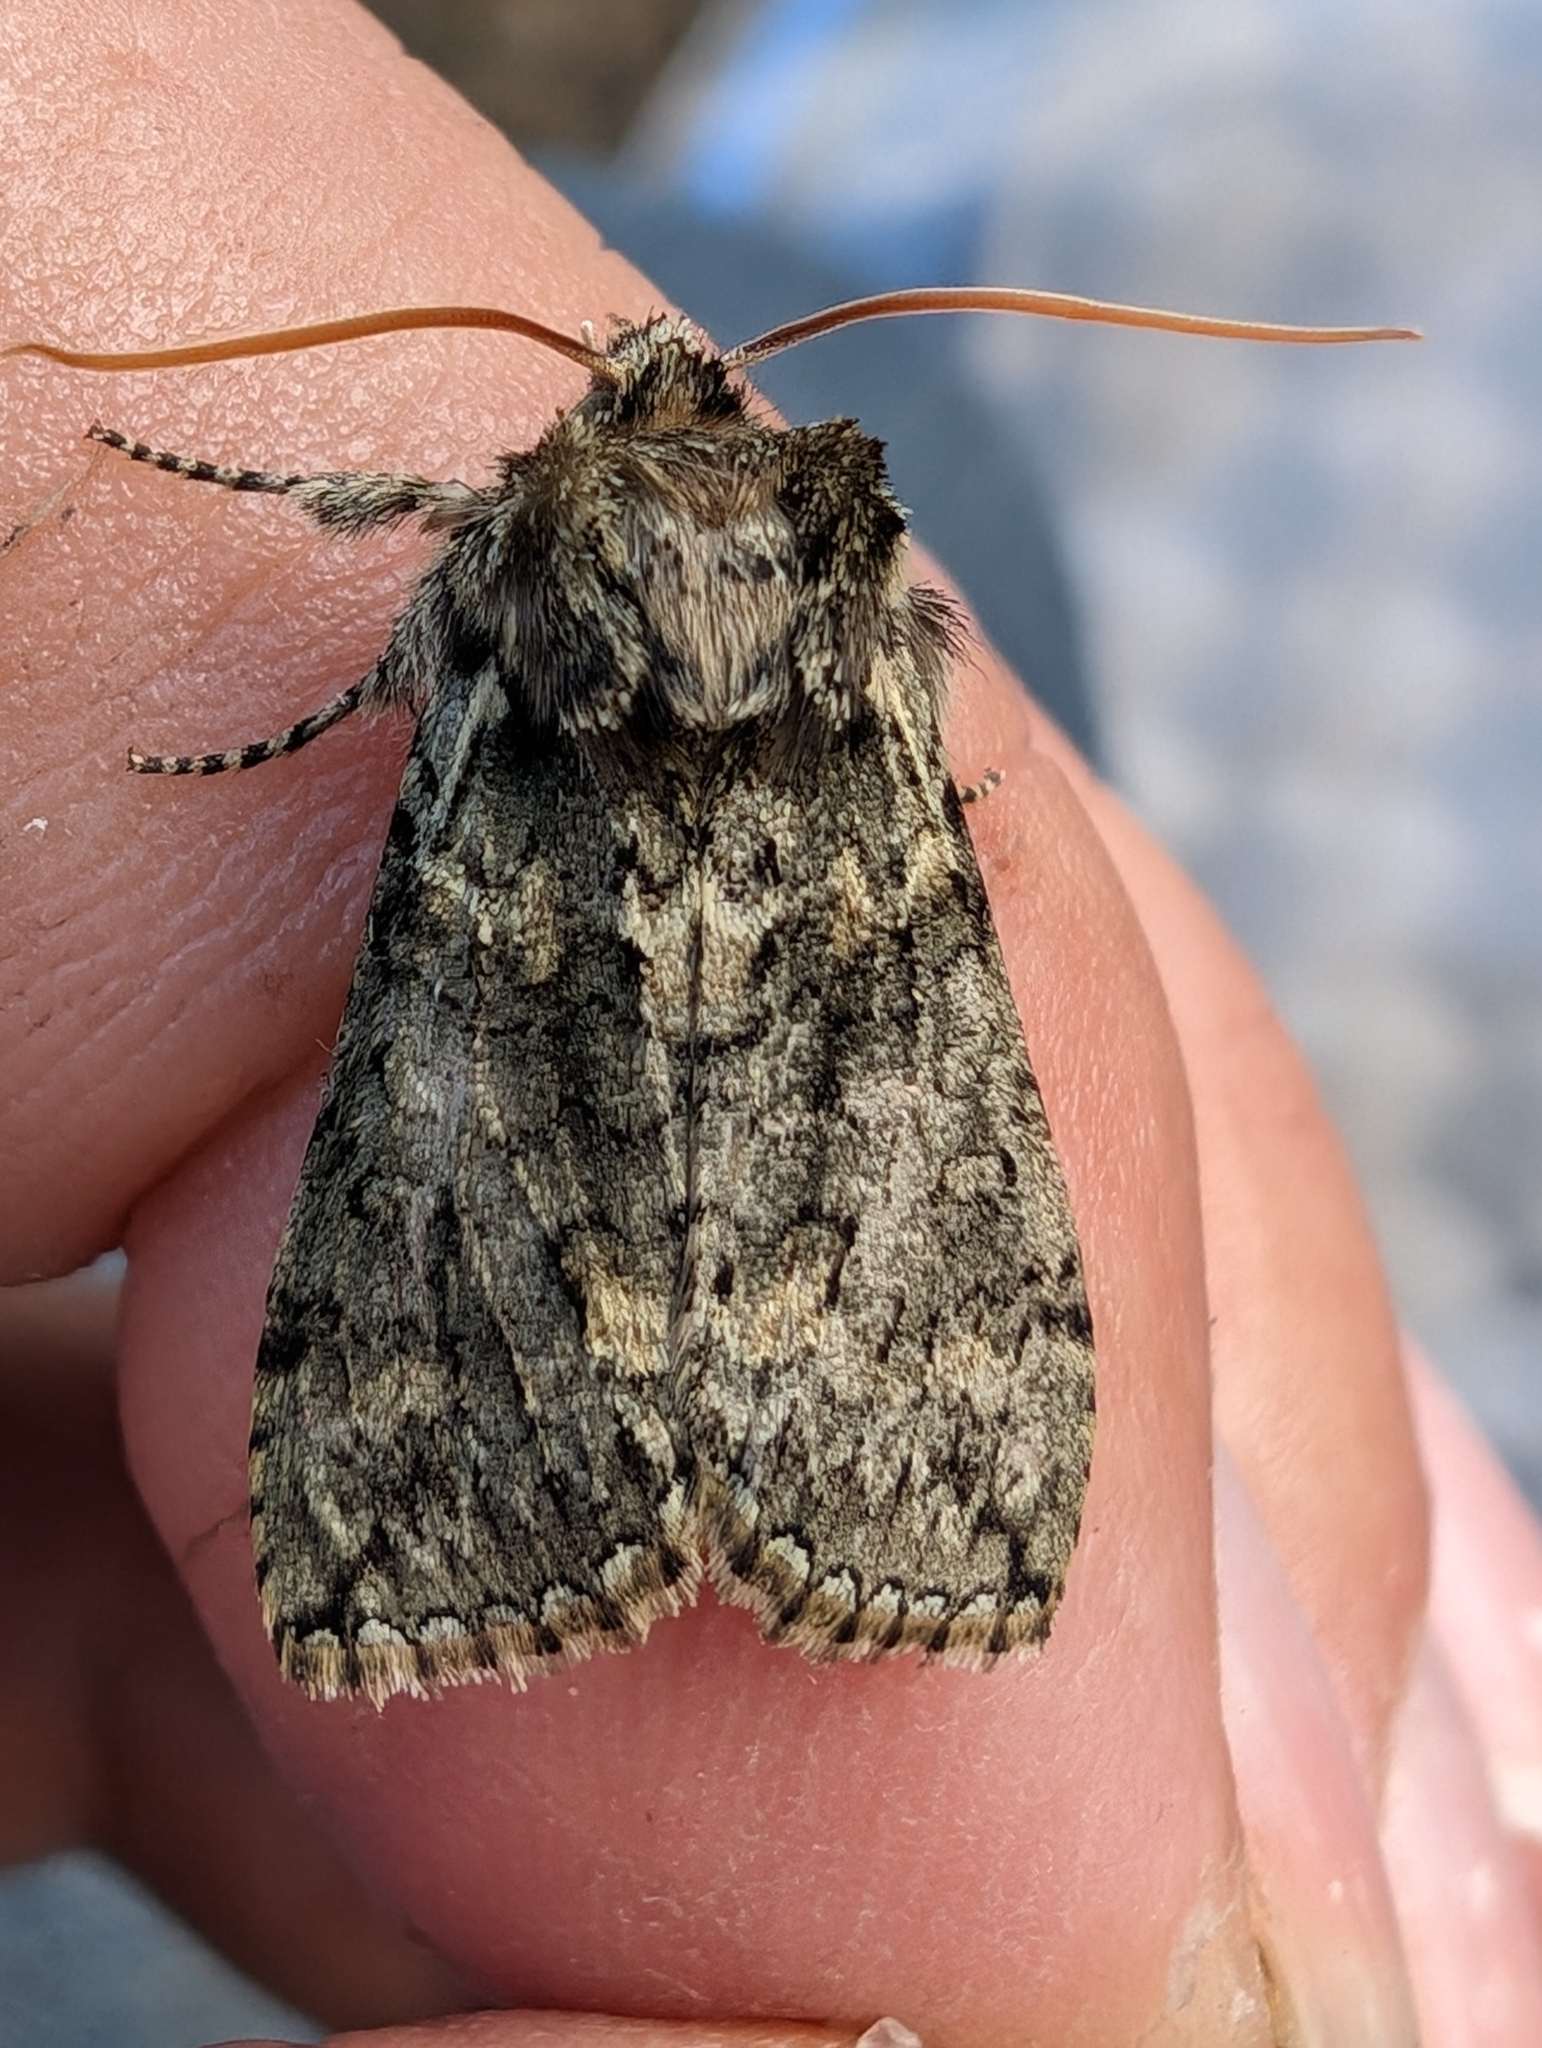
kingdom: Animalia
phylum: Arthropoda
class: Insecta
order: Lepidoptera
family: Drepanidae
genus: Polyploca
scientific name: Polyploca ridens
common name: Frosted green
